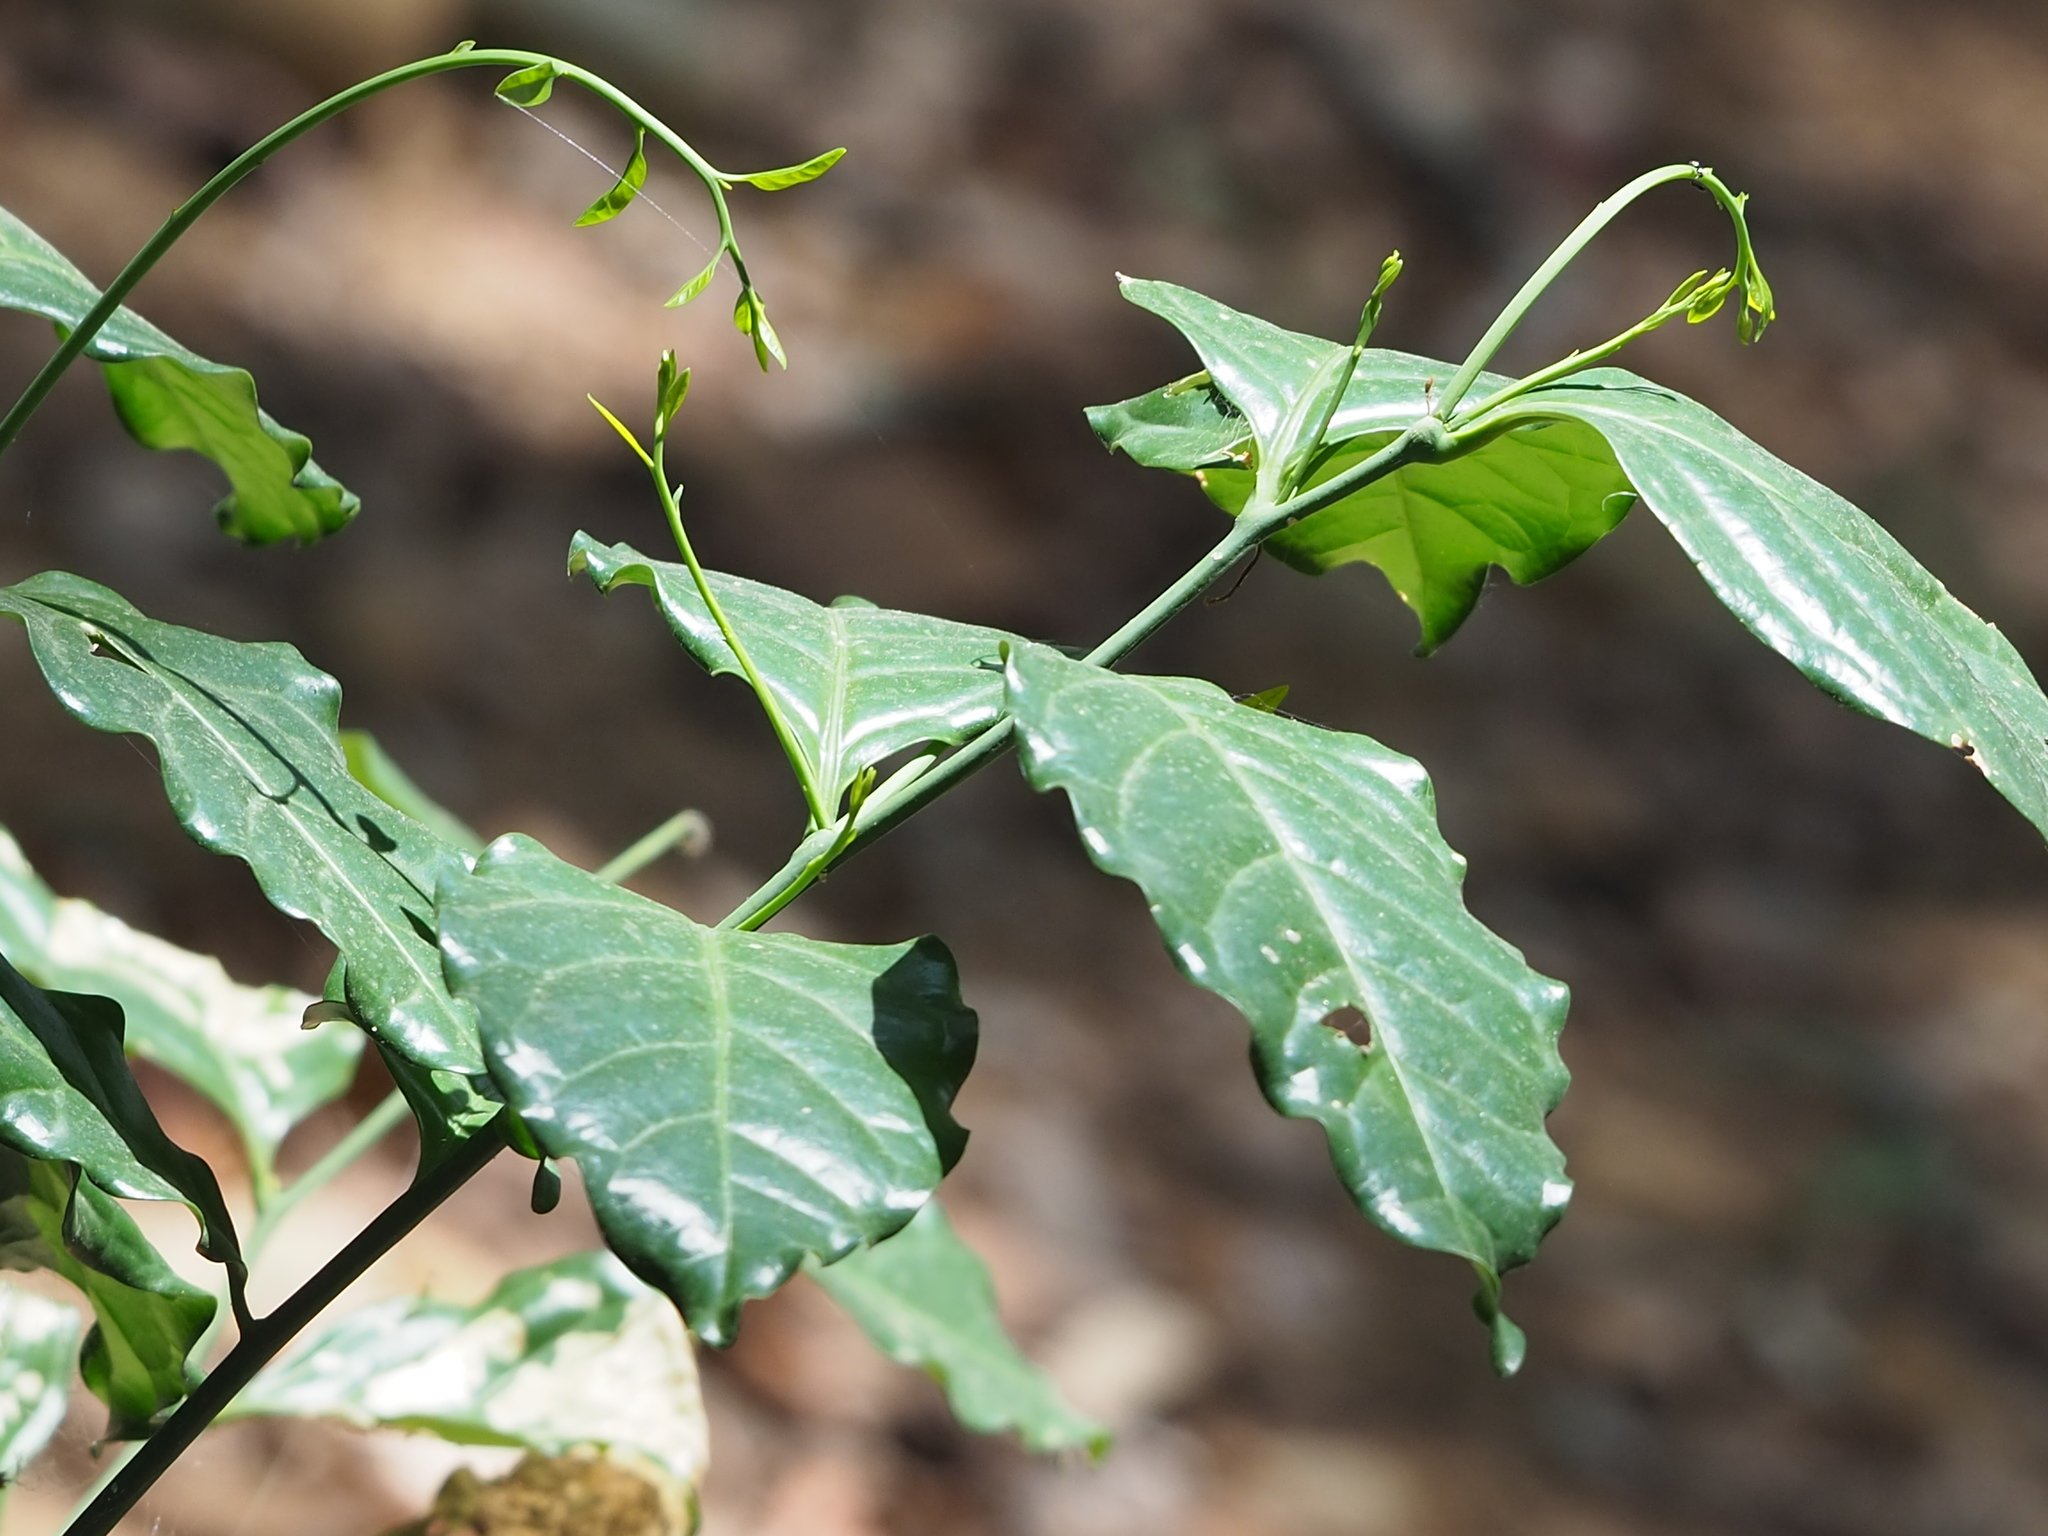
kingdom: Plantae
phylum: Tracheophyta
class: Magnoliopsida
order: Santalales
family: Opiliaceae
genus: Champereia
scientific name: Champereia manillana
